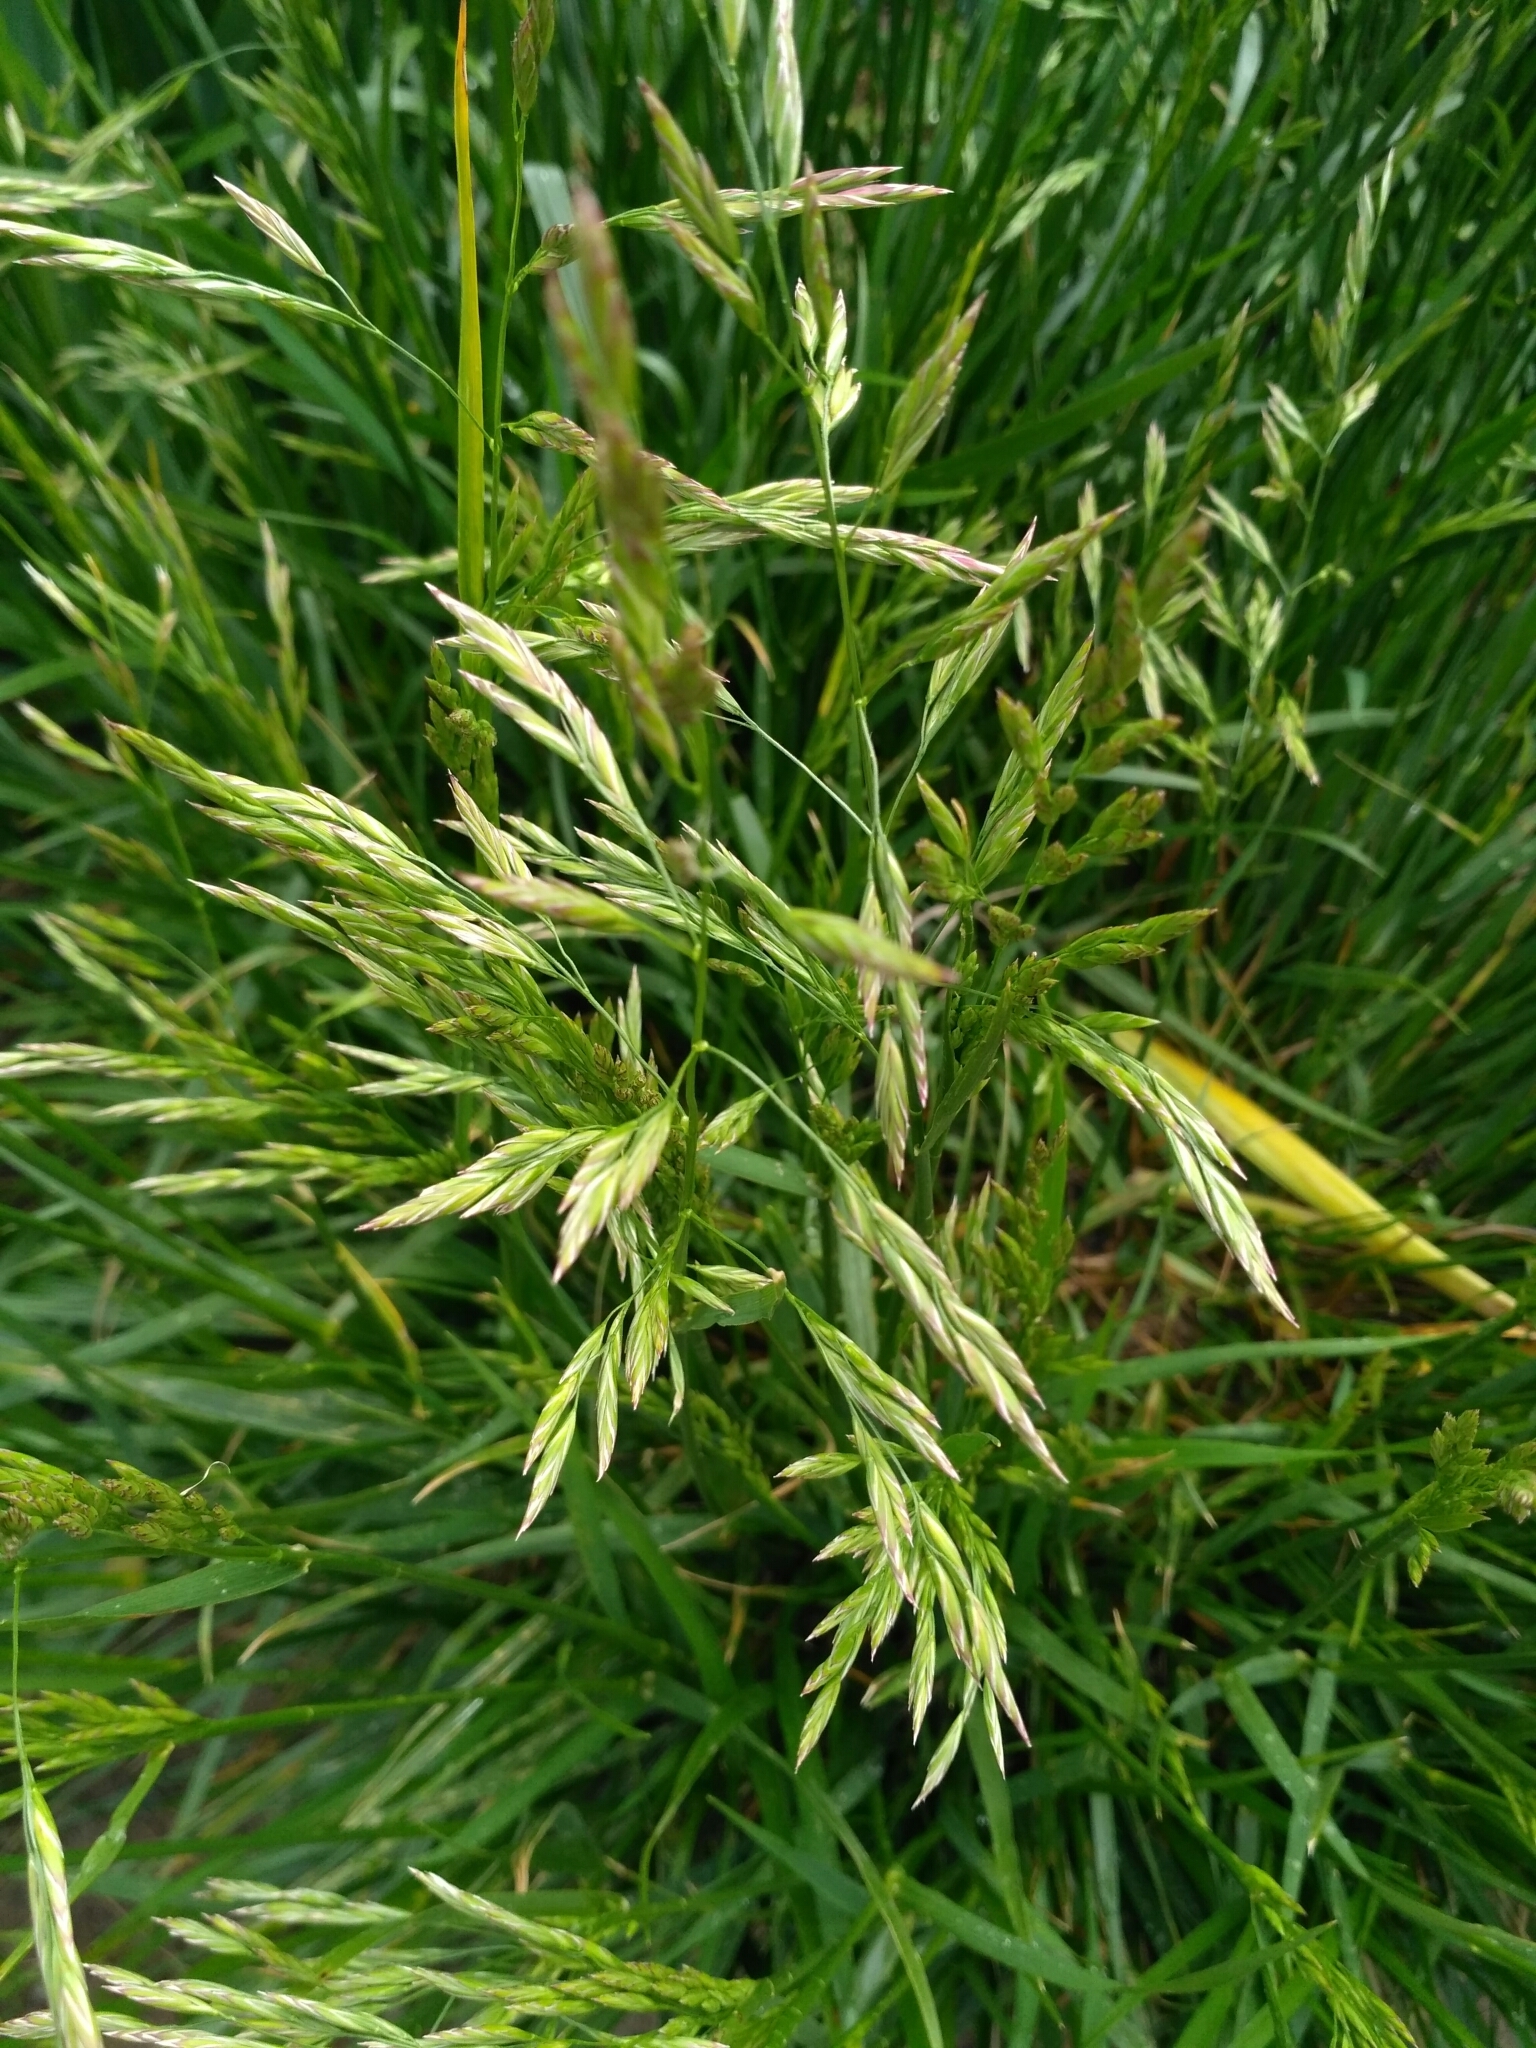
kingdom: Plantae
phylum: Tracheophyta
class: Liliopsida
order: Poales
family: Poaceae
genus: Lolium
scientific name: Lolium pratense
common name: Dover grass
